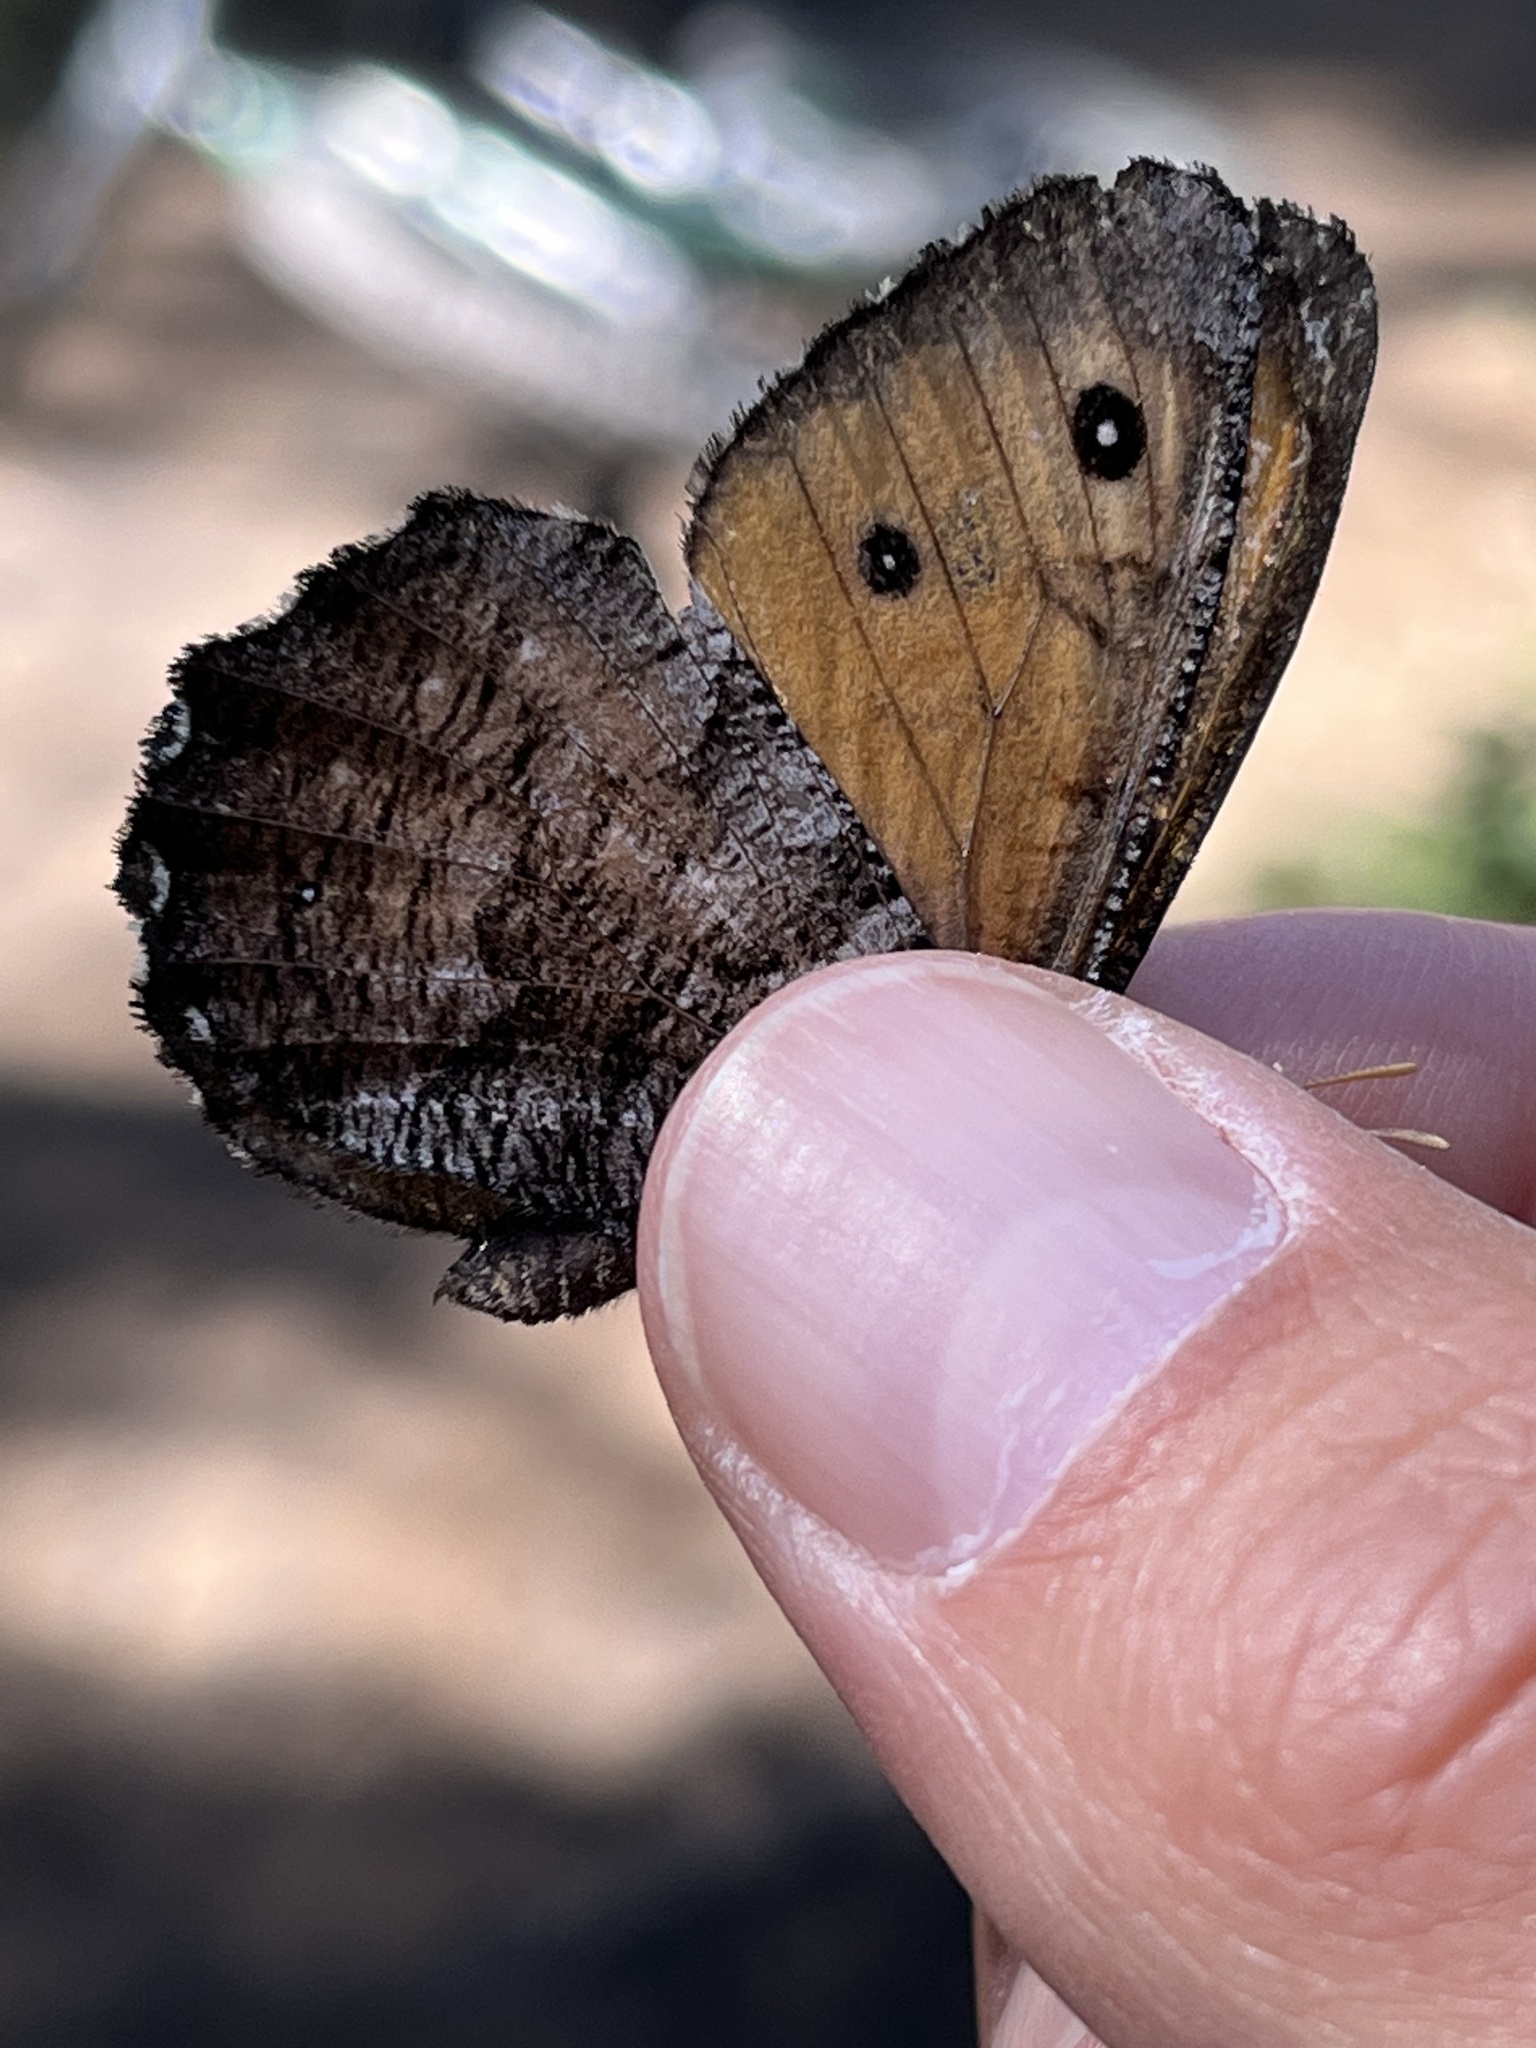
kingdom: Animalia
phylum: Arthropoda
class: Insecta
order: Lepidoptera
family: Nymphalidae
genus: Oeneis
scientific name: Oeneis macounii
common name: Macoun's arctic
